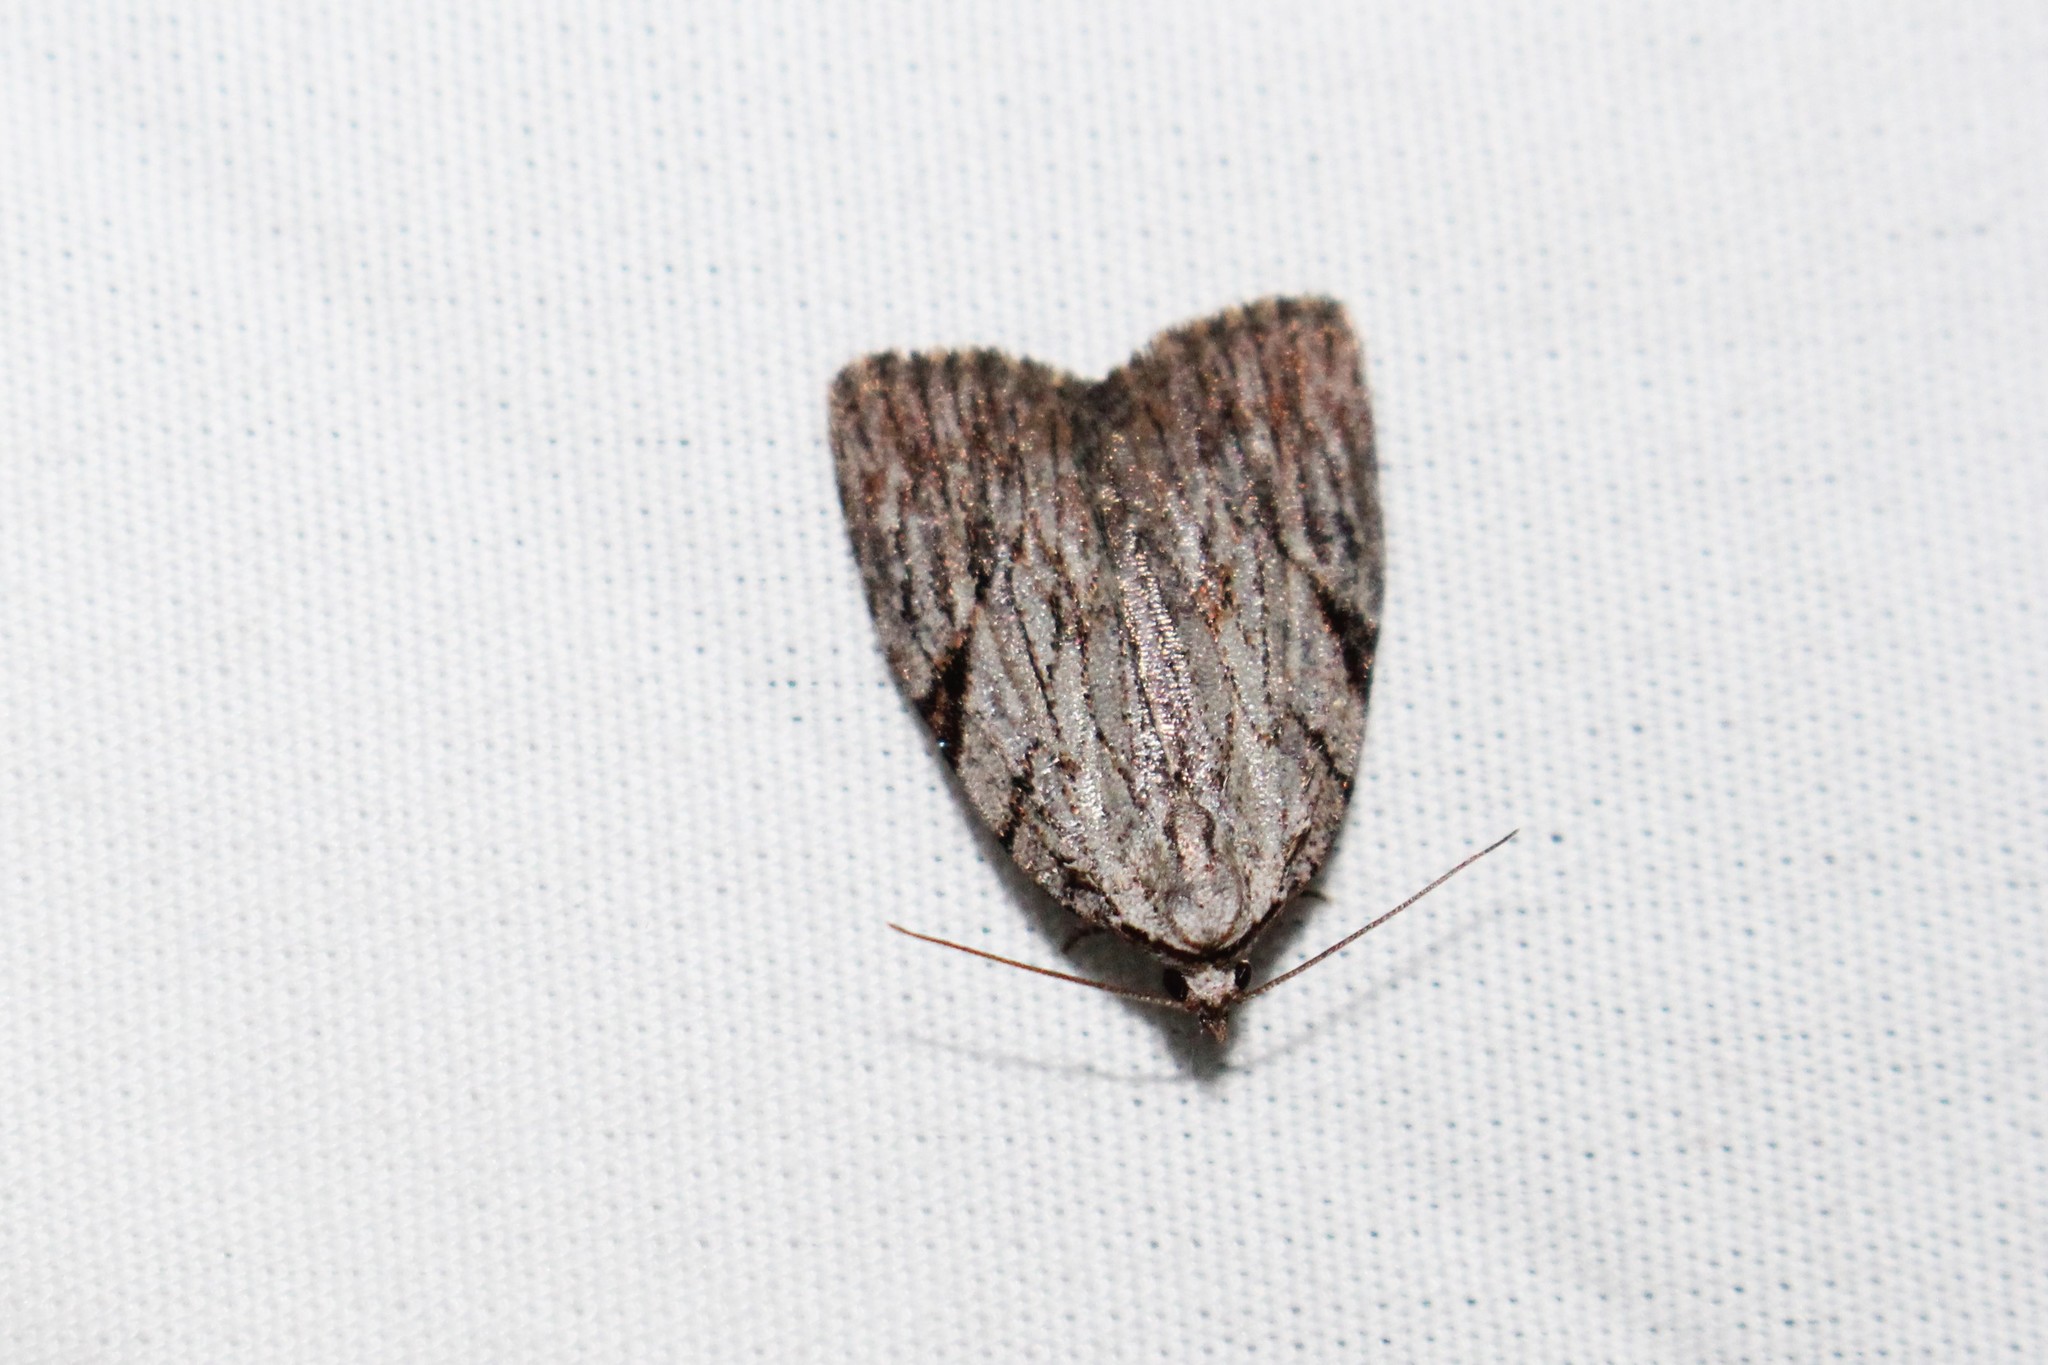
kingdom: Animalia
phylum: Arthropoda
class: Insecta
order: Lepidoptera
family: Noctuidae
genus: Balsa
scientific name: Balsa tristrigella
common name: Three-lined balsa moth
